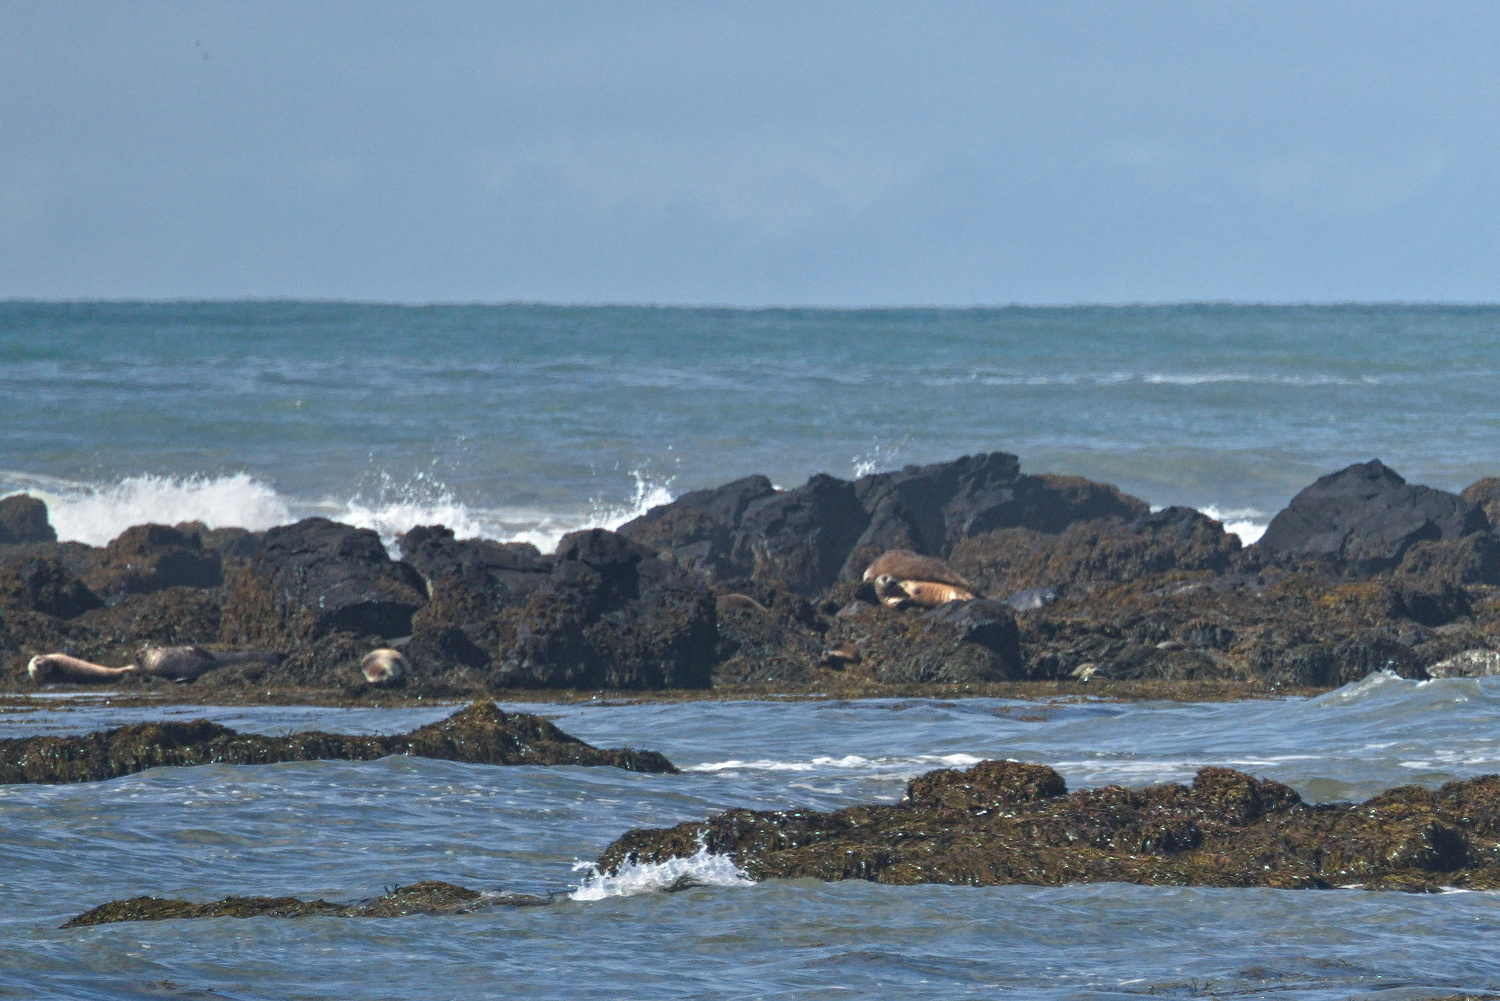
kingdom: Animalia
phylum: Chordata
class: Mammalia
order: Carnivora
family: Phocidae
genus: Phoca
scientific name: Phoca vitulina
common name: Harbor seal
